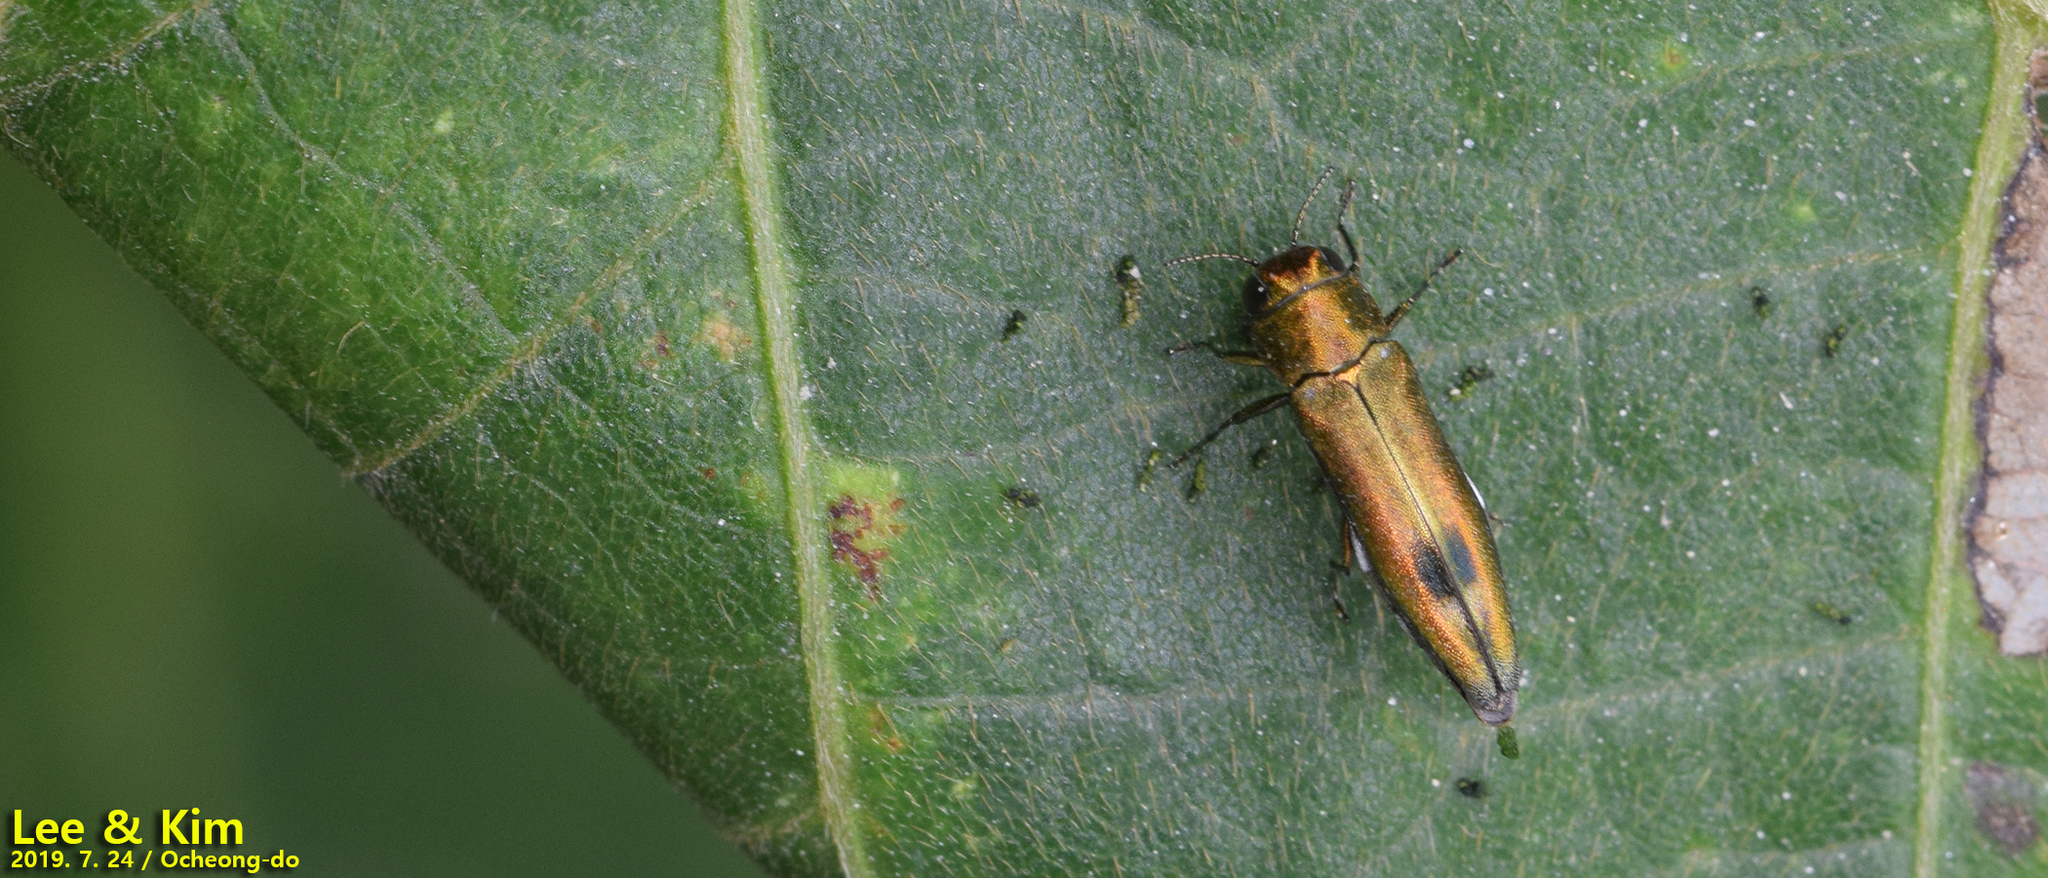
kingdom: Animalia
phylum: Arthropoda
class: Insecta
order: Coleoptera
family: Buprestidae
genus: Agrilus
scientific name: Agrilus chujoi
